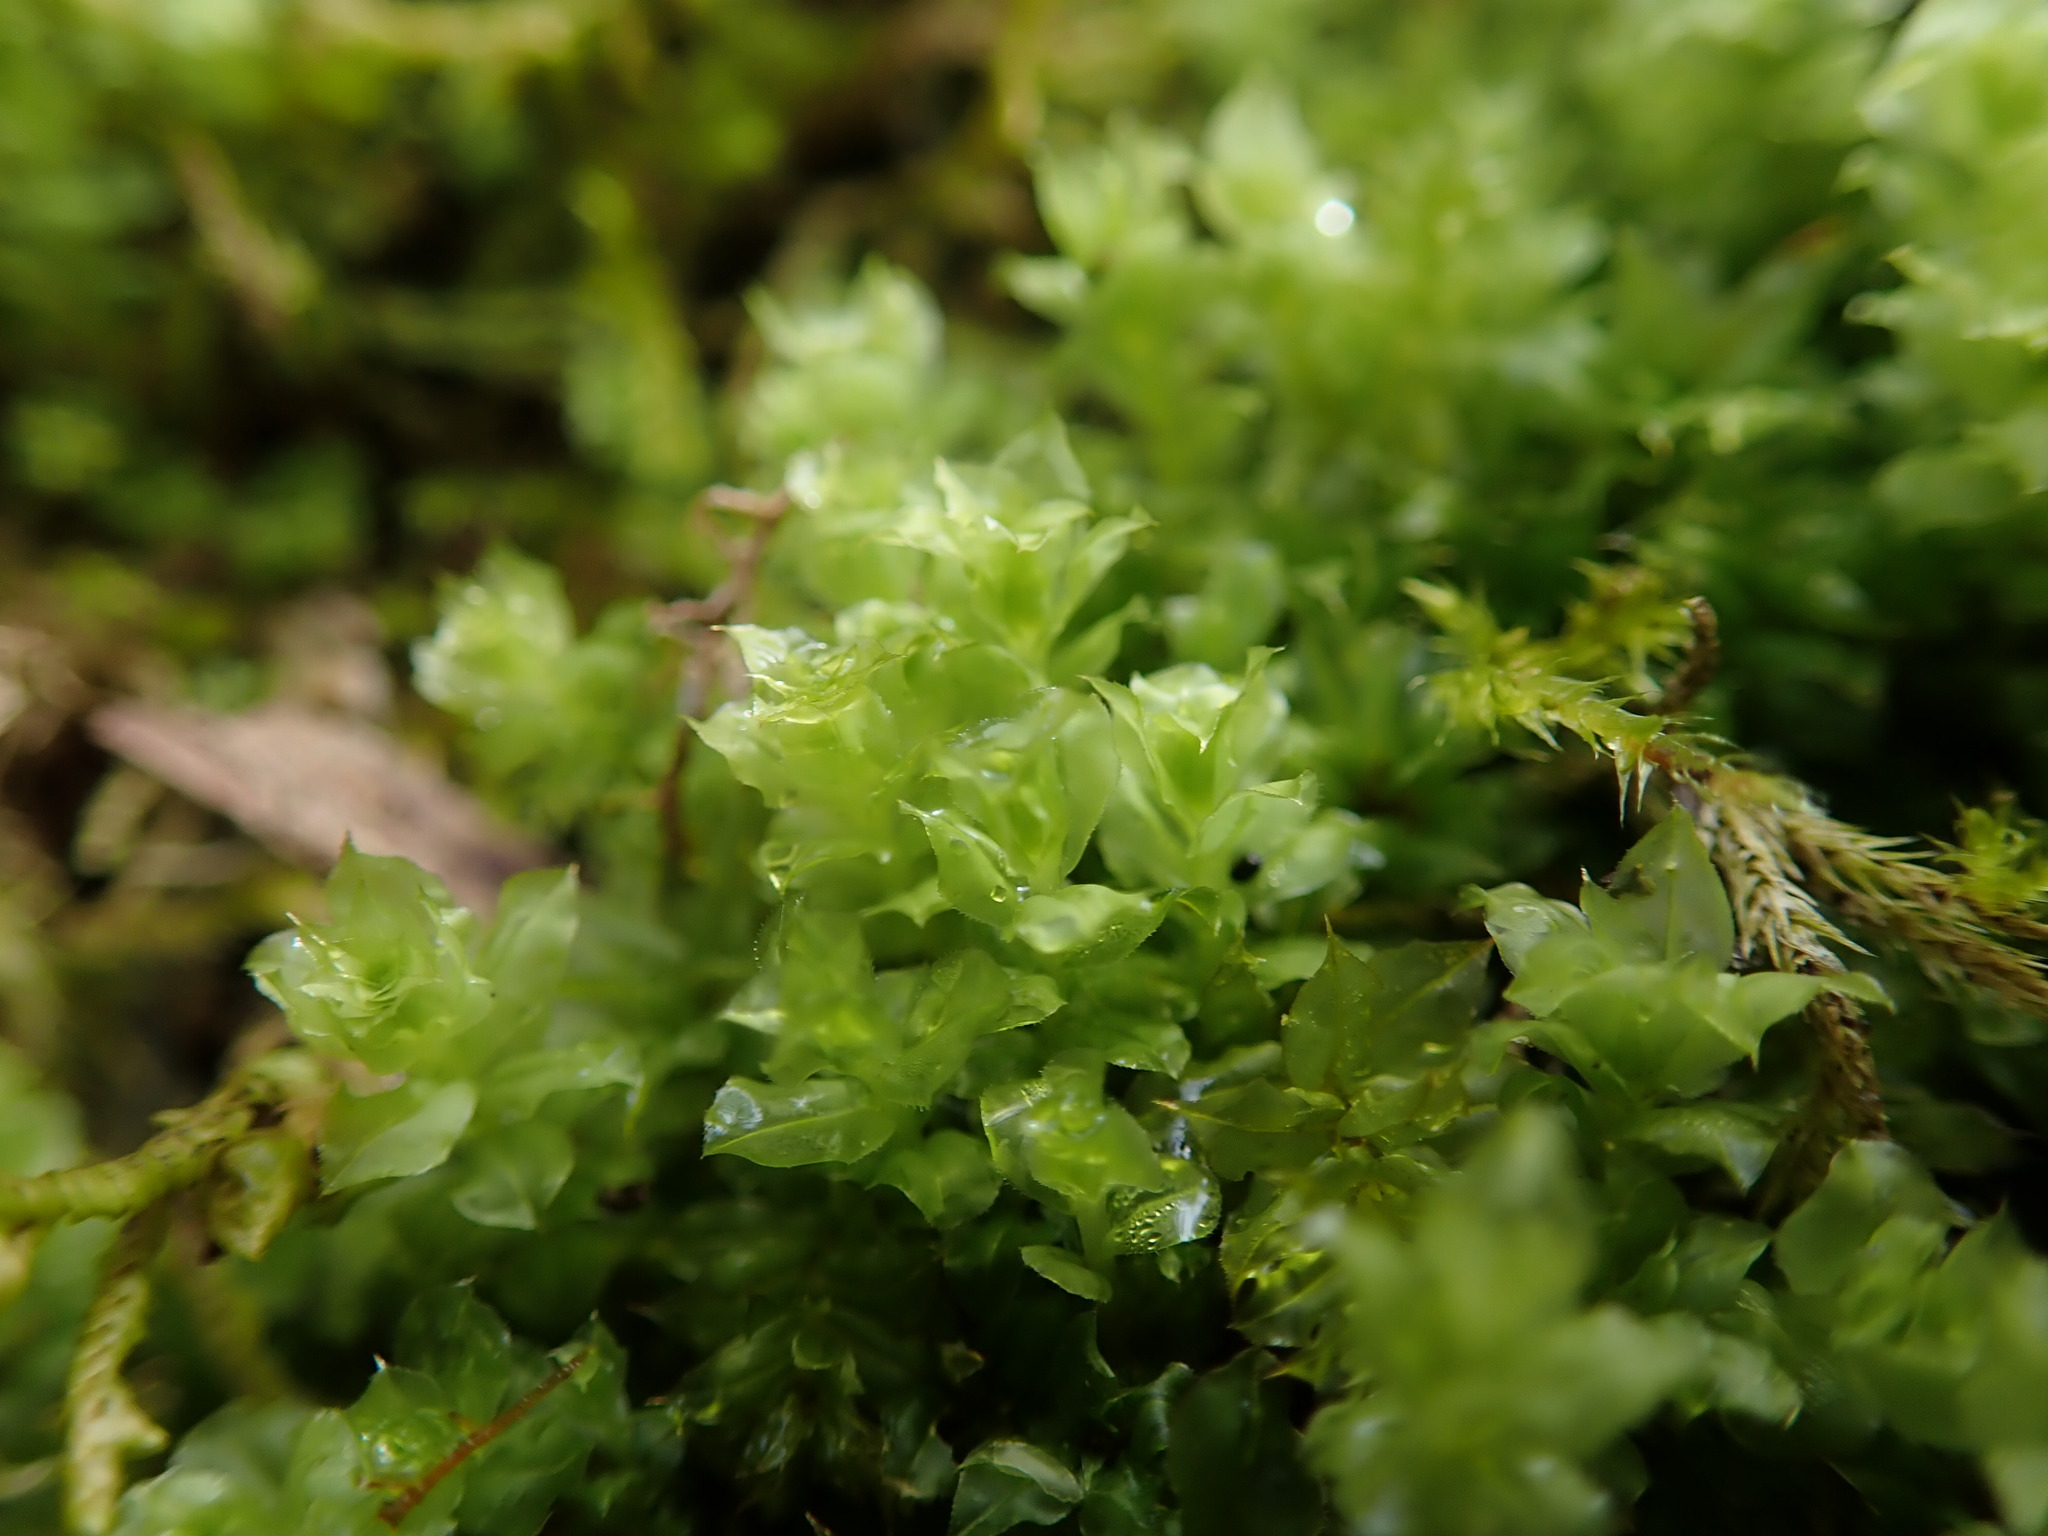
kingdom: Plantae
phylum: Bryophyta
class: Bryopsida
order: Bryales
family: Mniaceae
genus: Plagiomnium
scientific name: Plagiomnium insigne
